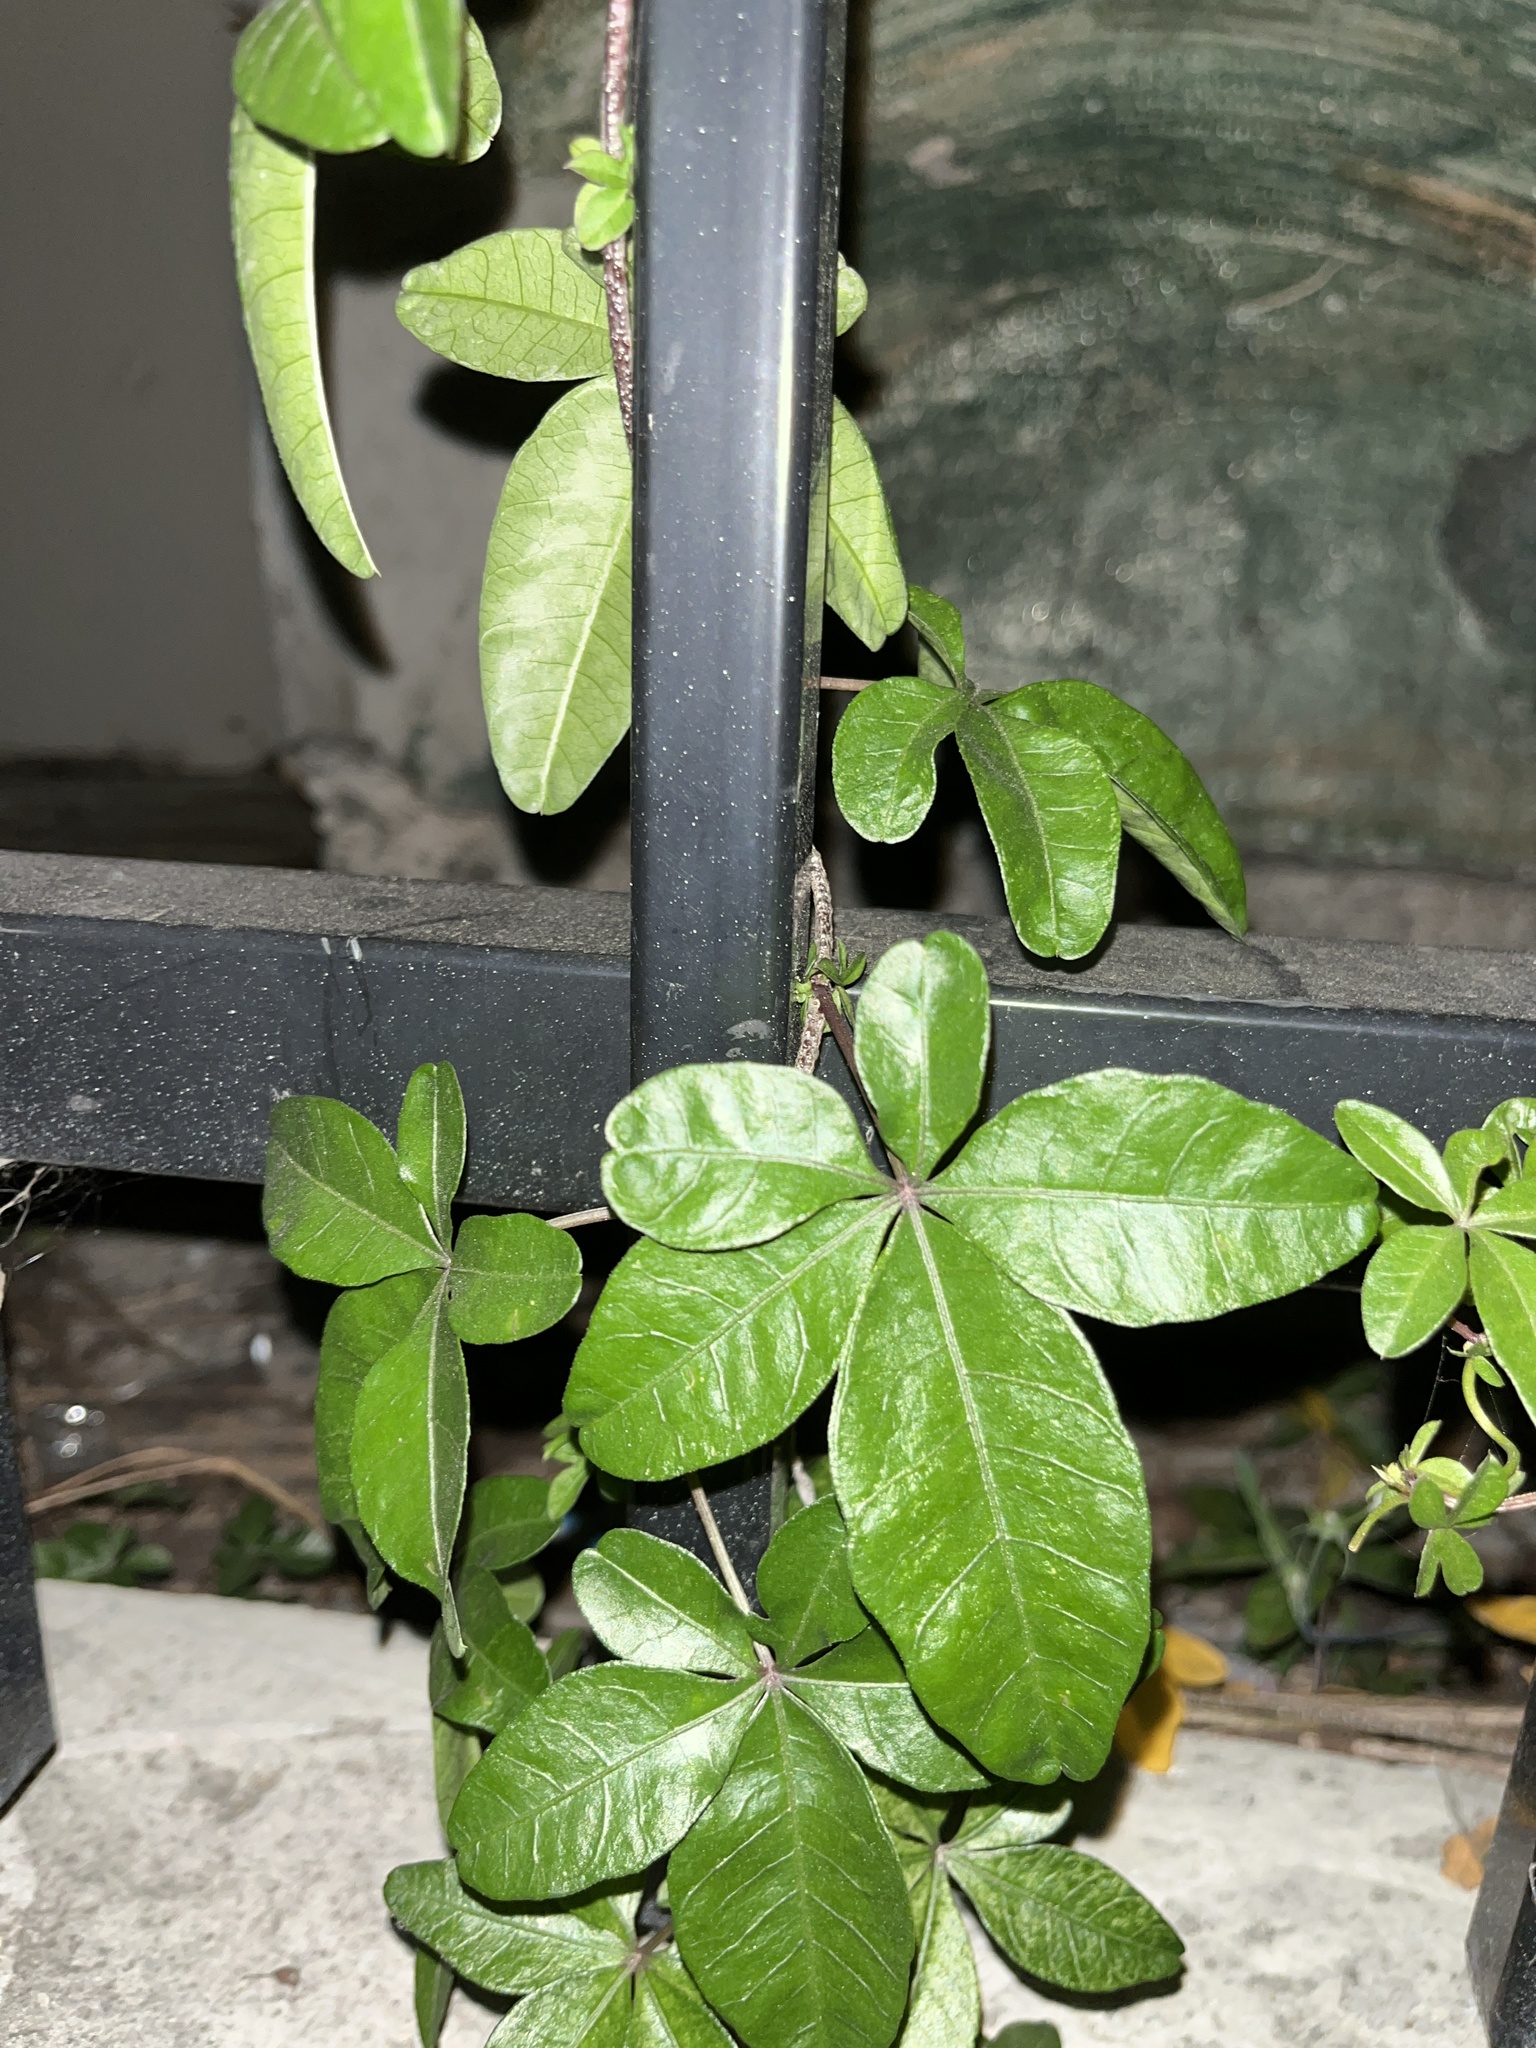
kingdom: Plantae
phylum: Tracheophyta
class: Magnoliopsida
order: Solanales
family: Convolvulaceae
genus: Ipomoea
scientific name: Ipomoea cairica
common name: Mile a minute vine
